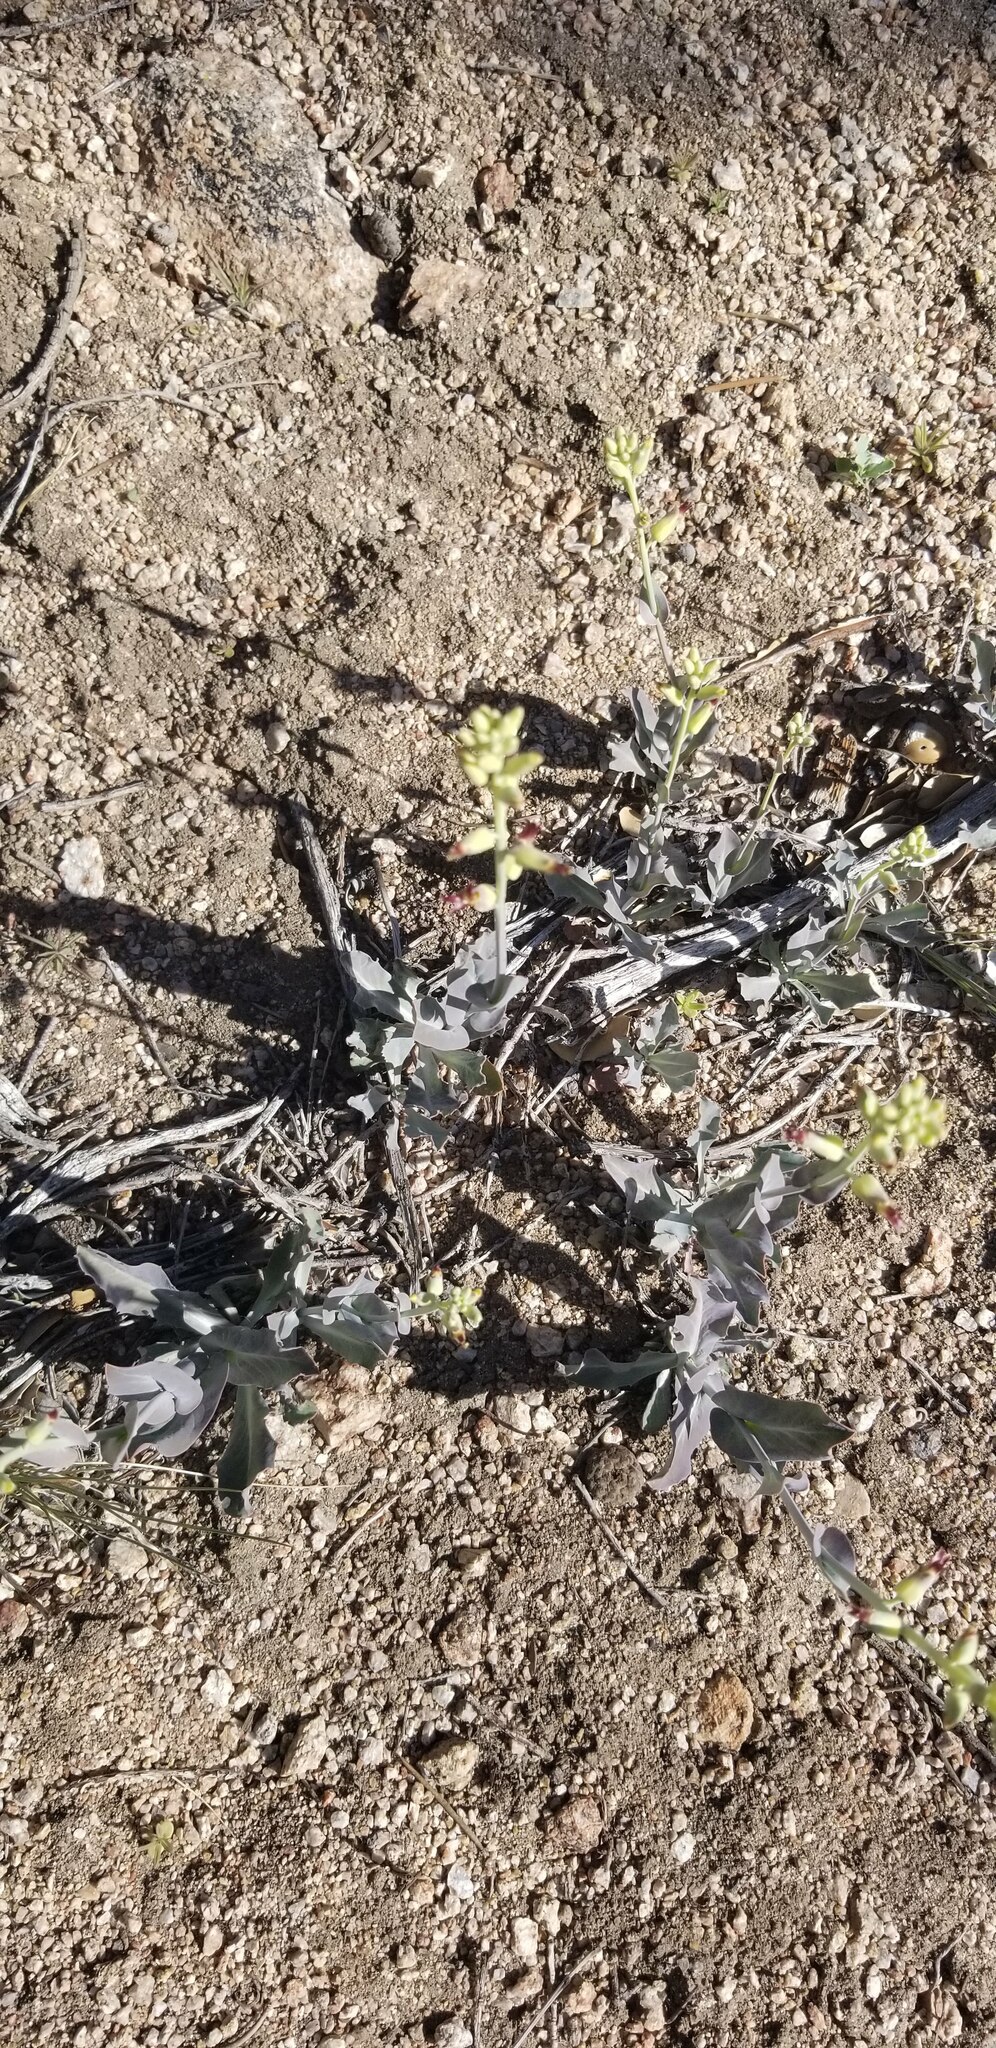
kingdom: Plantae
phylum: Tracheophyta
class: Magnoliopsida
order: Brassicales
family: Brassicaceae
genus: Streptanthus
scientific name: Streptanthus cordatus
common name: Heart-leaf jewel-flower
